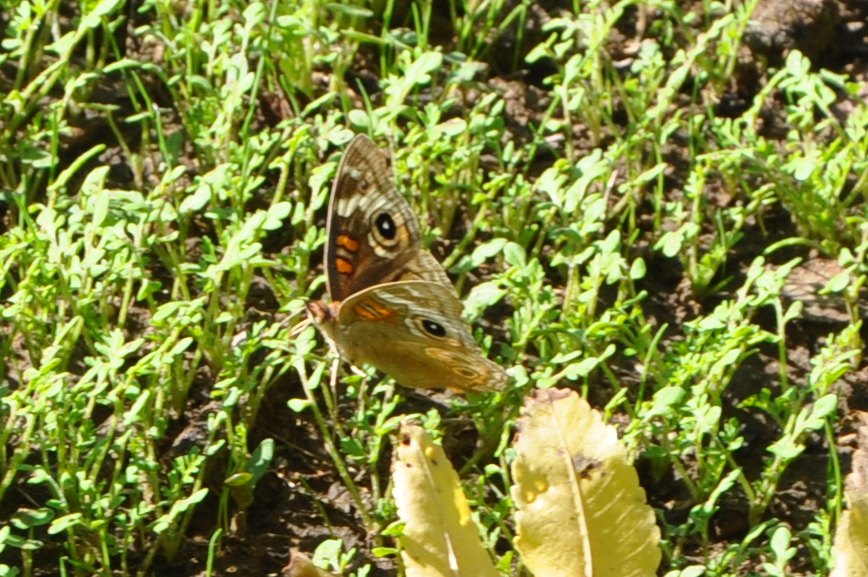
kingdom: Animalia
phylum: Arthropoda
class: Insecta
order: Lepidoptera
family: Nymphalidae
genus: Junonia
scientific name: Junonia grisea
